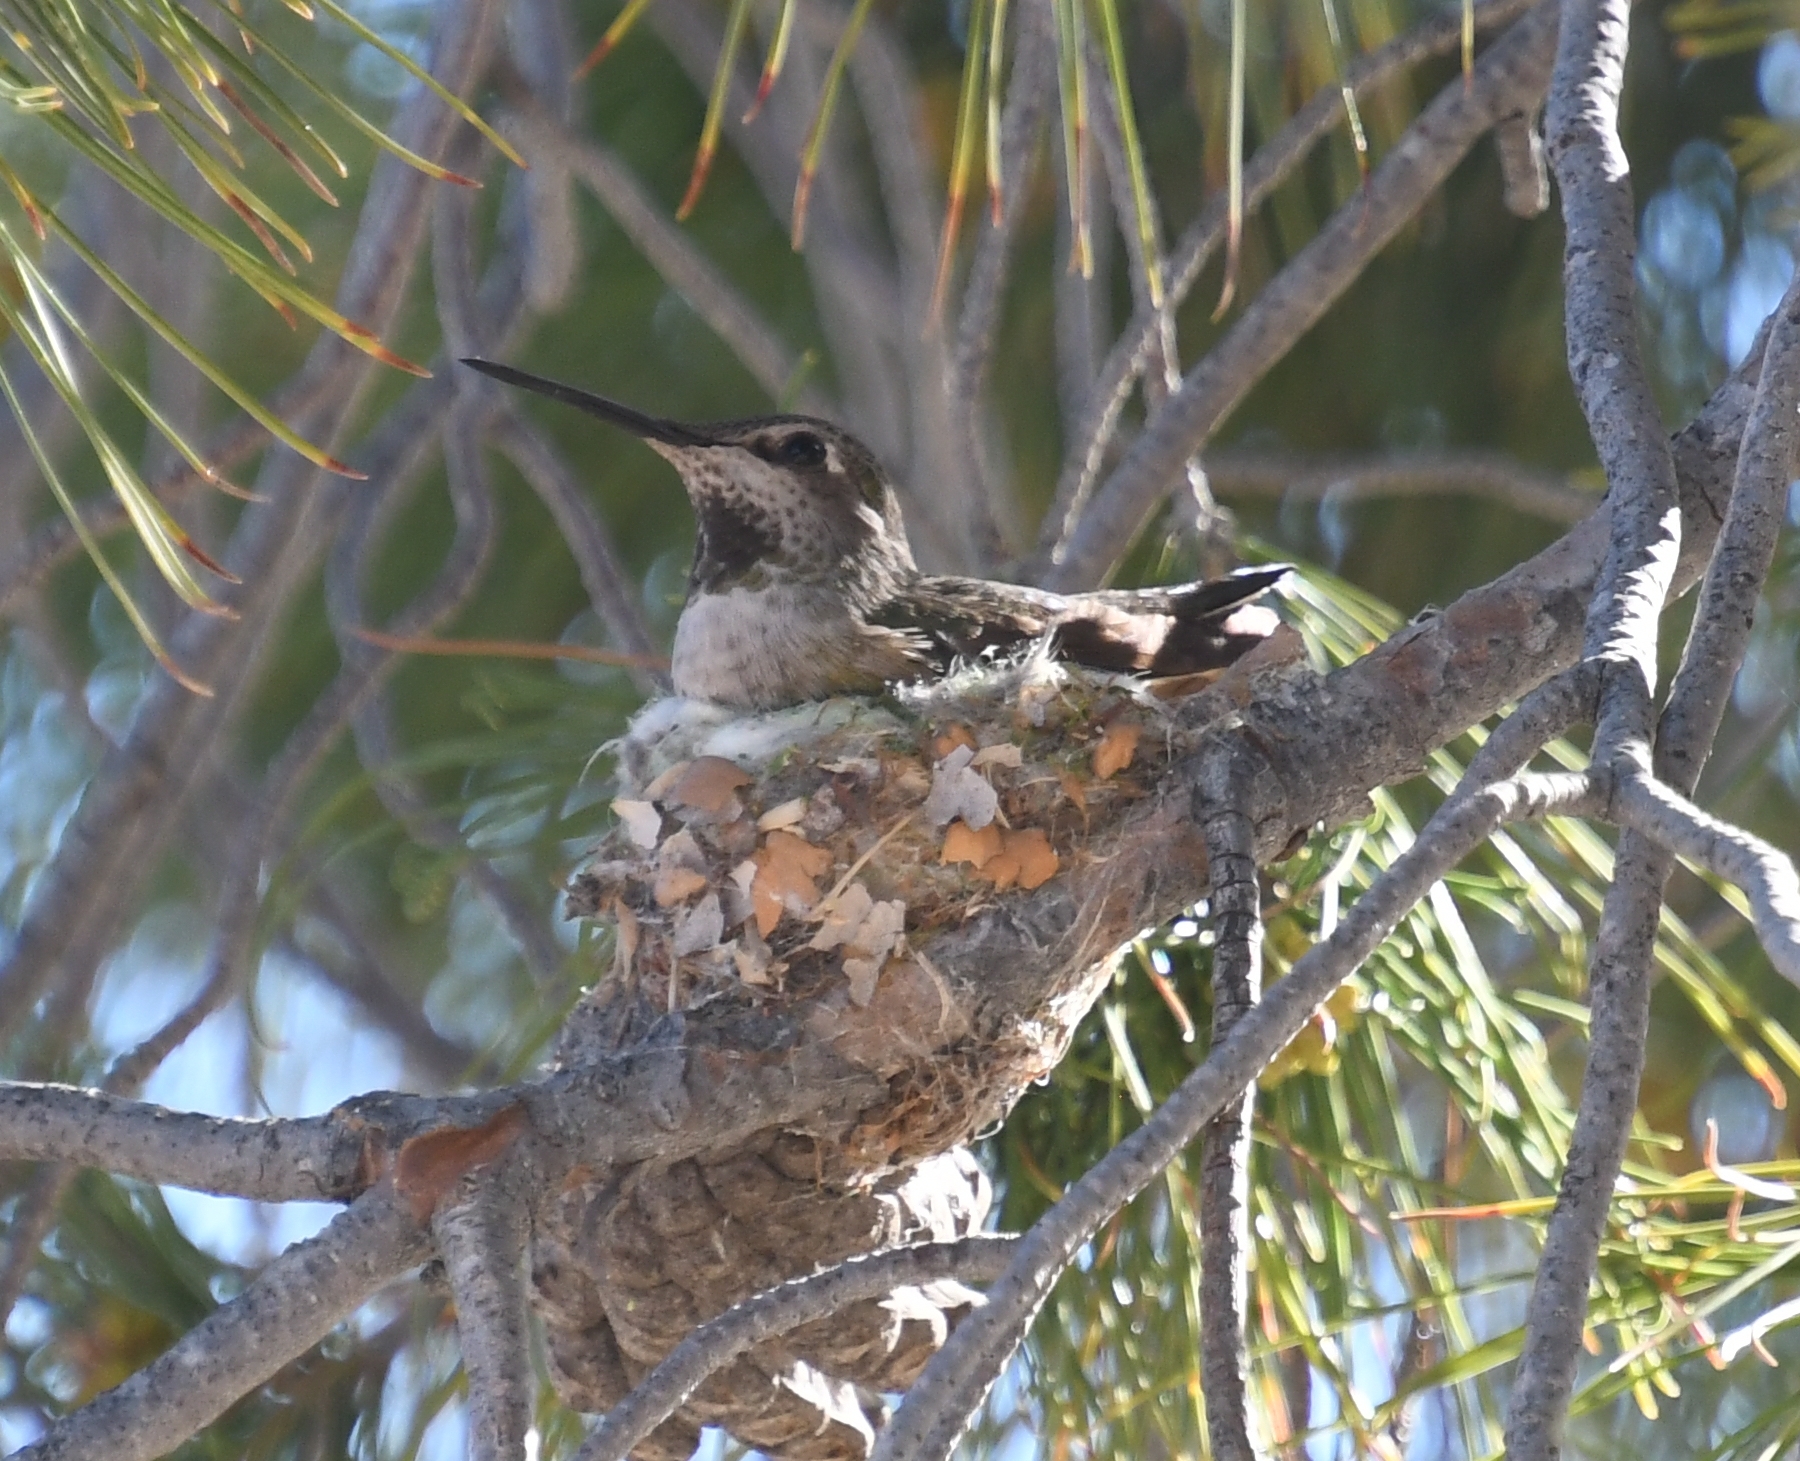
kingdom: Animalia
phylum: Chordata
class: Aves
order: Apodiformes
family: Trochilidae
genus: Calypte
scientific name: Calypte anna
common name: Anna's hummingbird
